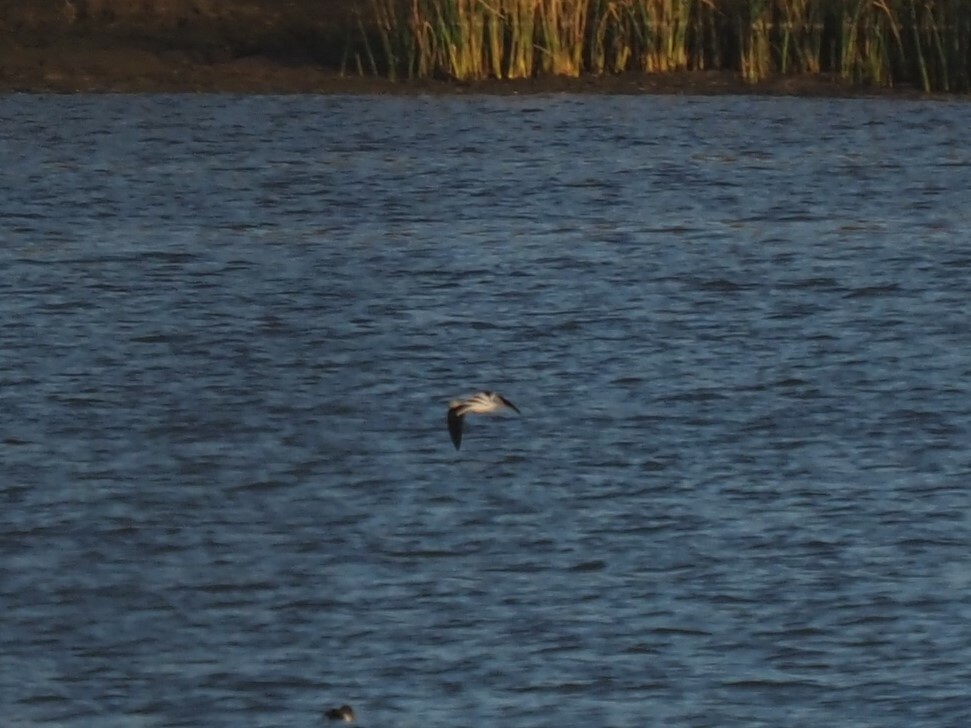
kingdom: Animalia
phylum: Chordata
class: Aves
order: Charadriiformes
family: Recurvirostridae
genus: Recurvirostra
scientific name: Recurvirostra americana
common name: American avocet
